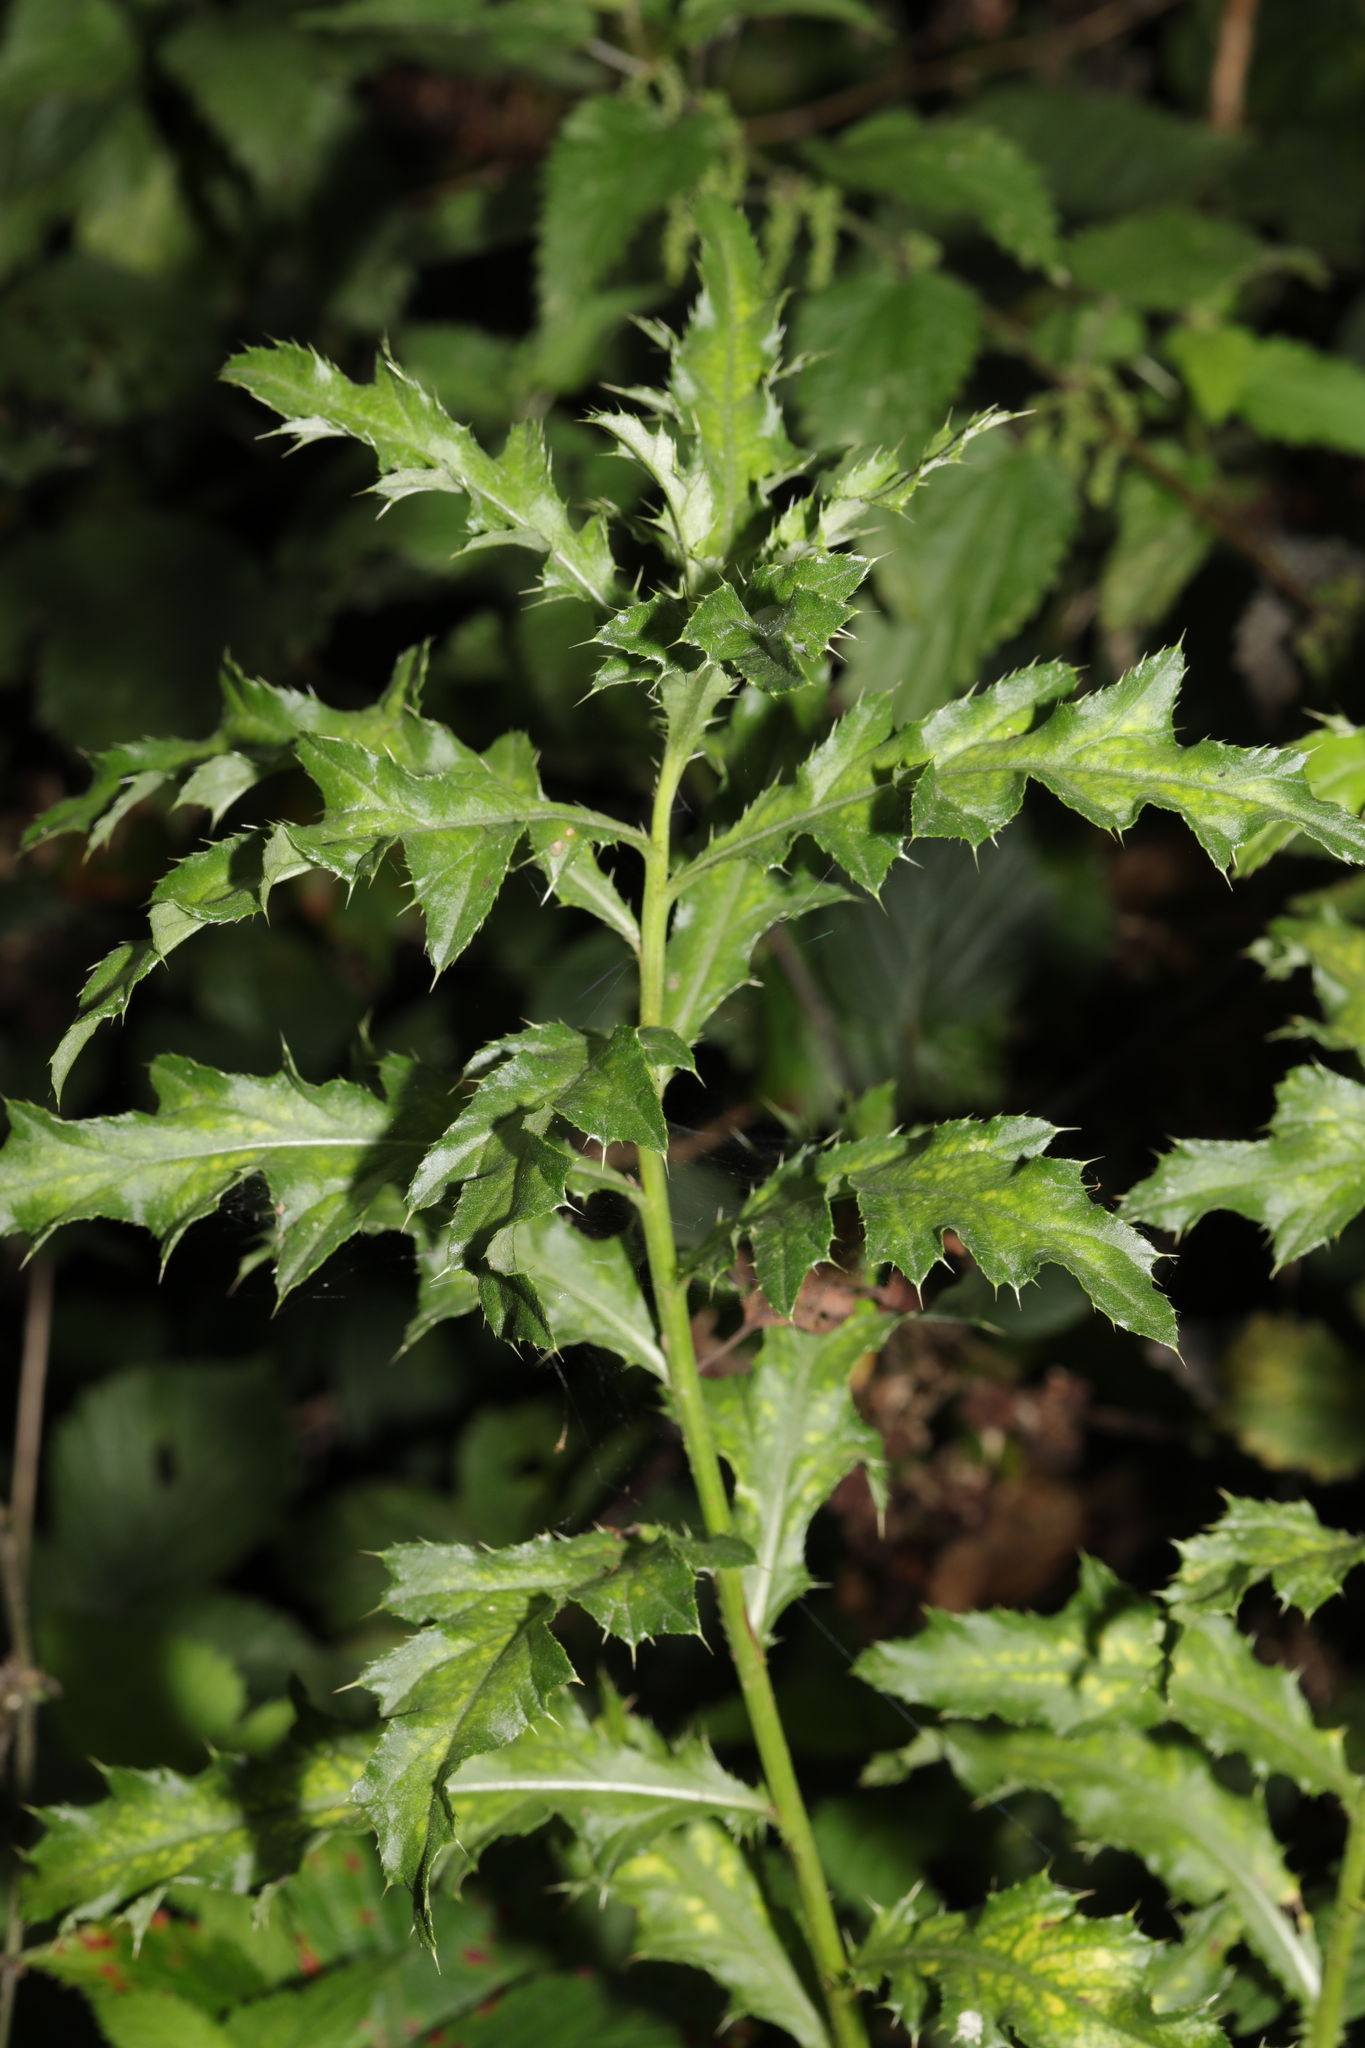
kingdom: Plantae
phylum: Tracheophyta
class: Magnoliopsida
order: Asterales
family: Asteraceae
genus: Cirsium
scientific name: Cirsium arvense
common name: Creeping thistle
